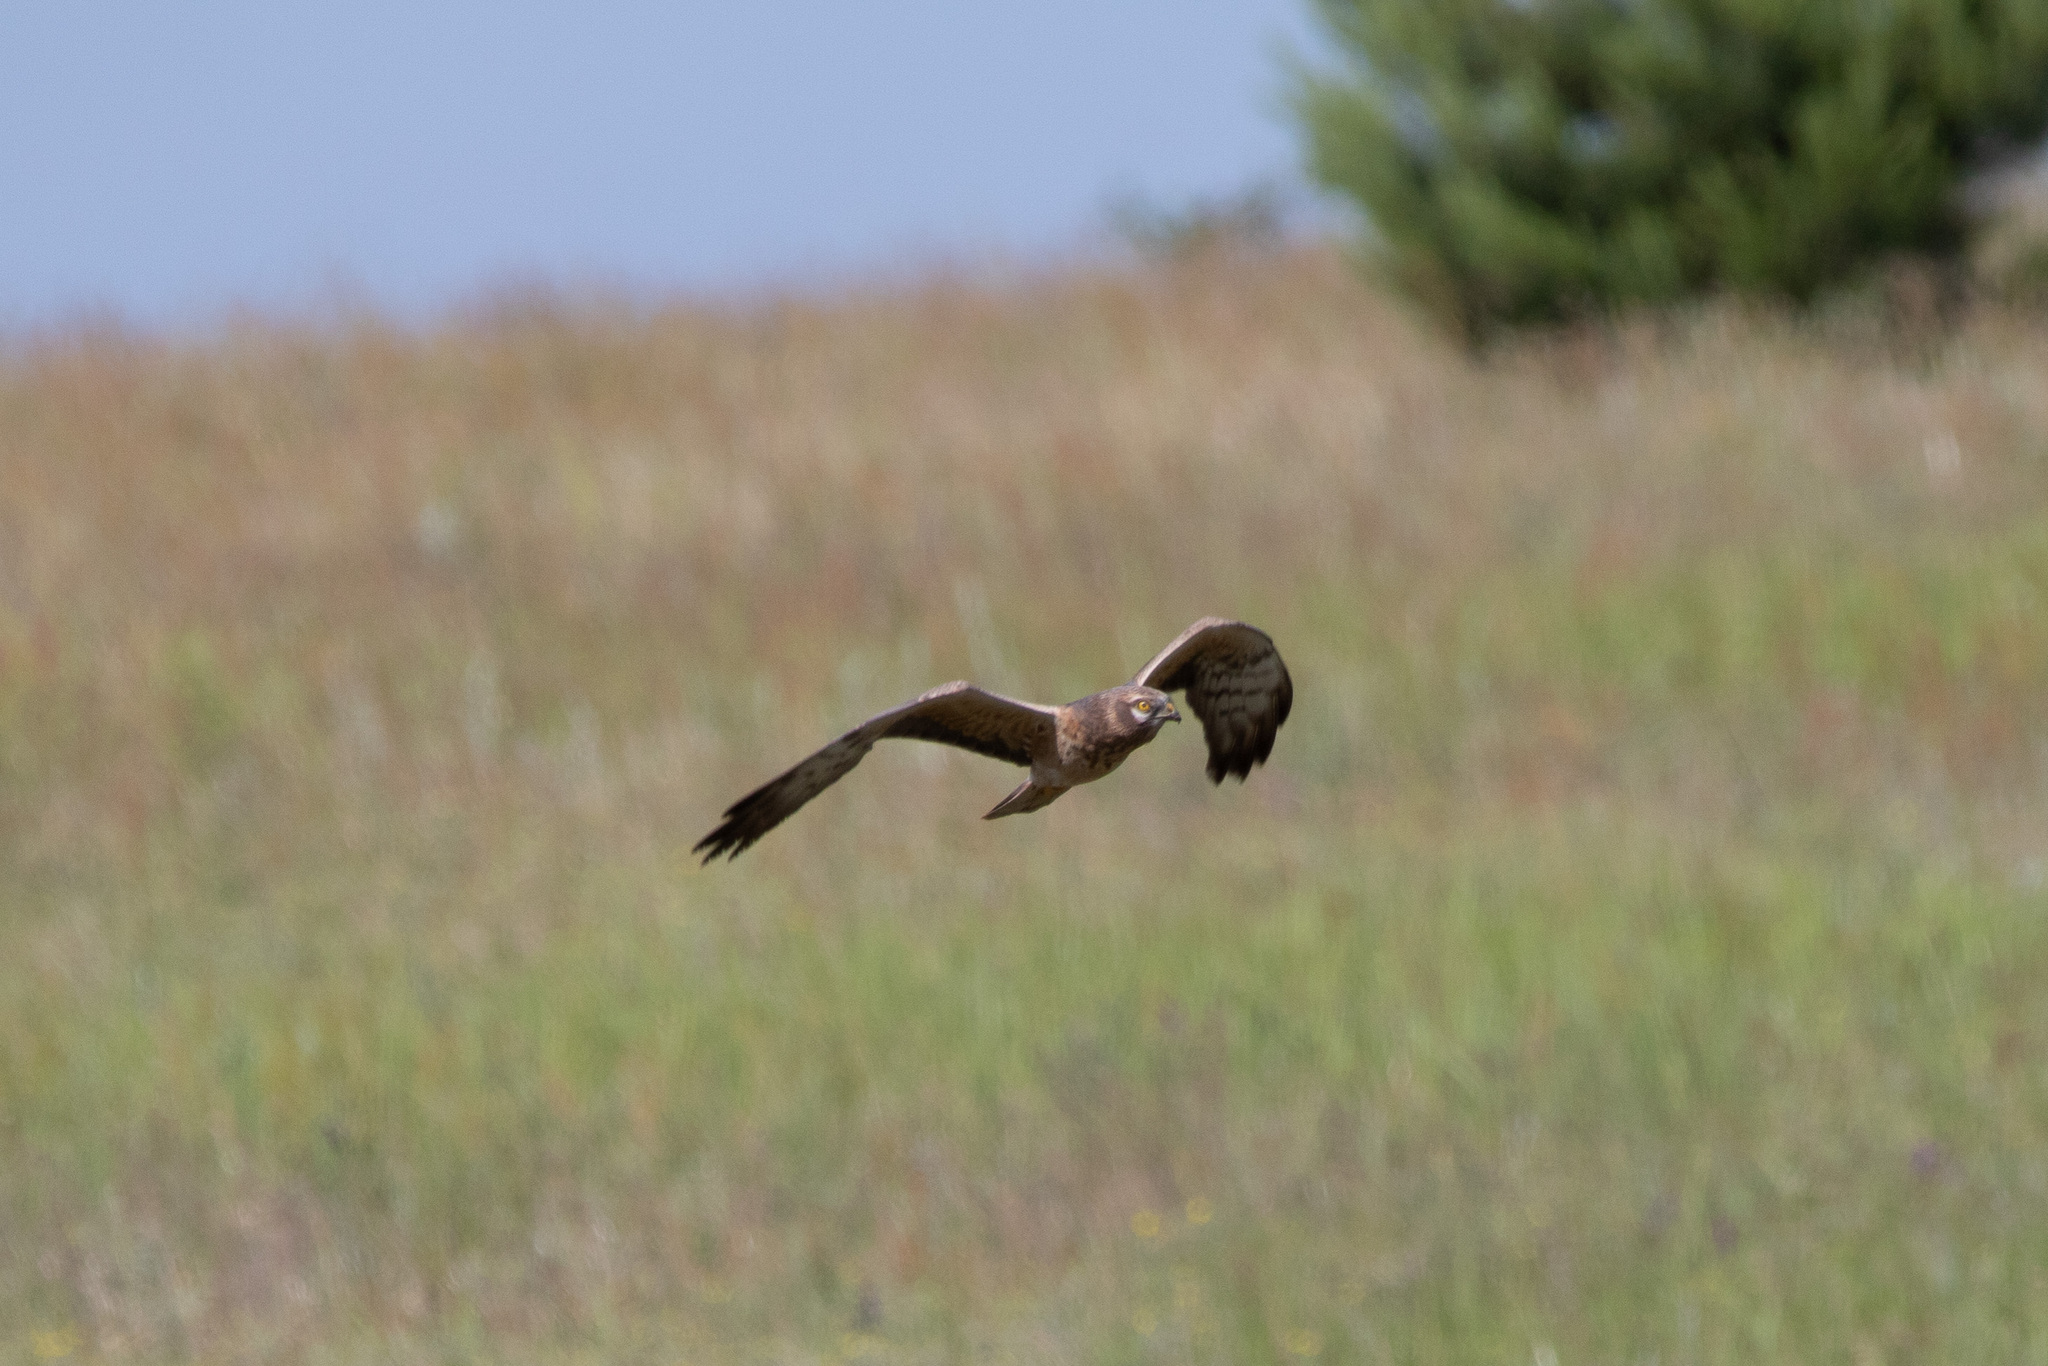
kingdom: Animalia
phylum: Chordata
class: Aves
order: Accipitriformes
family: Accipitridae
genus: Circus
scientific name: Circus pygargus
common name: Montagu's harrier
